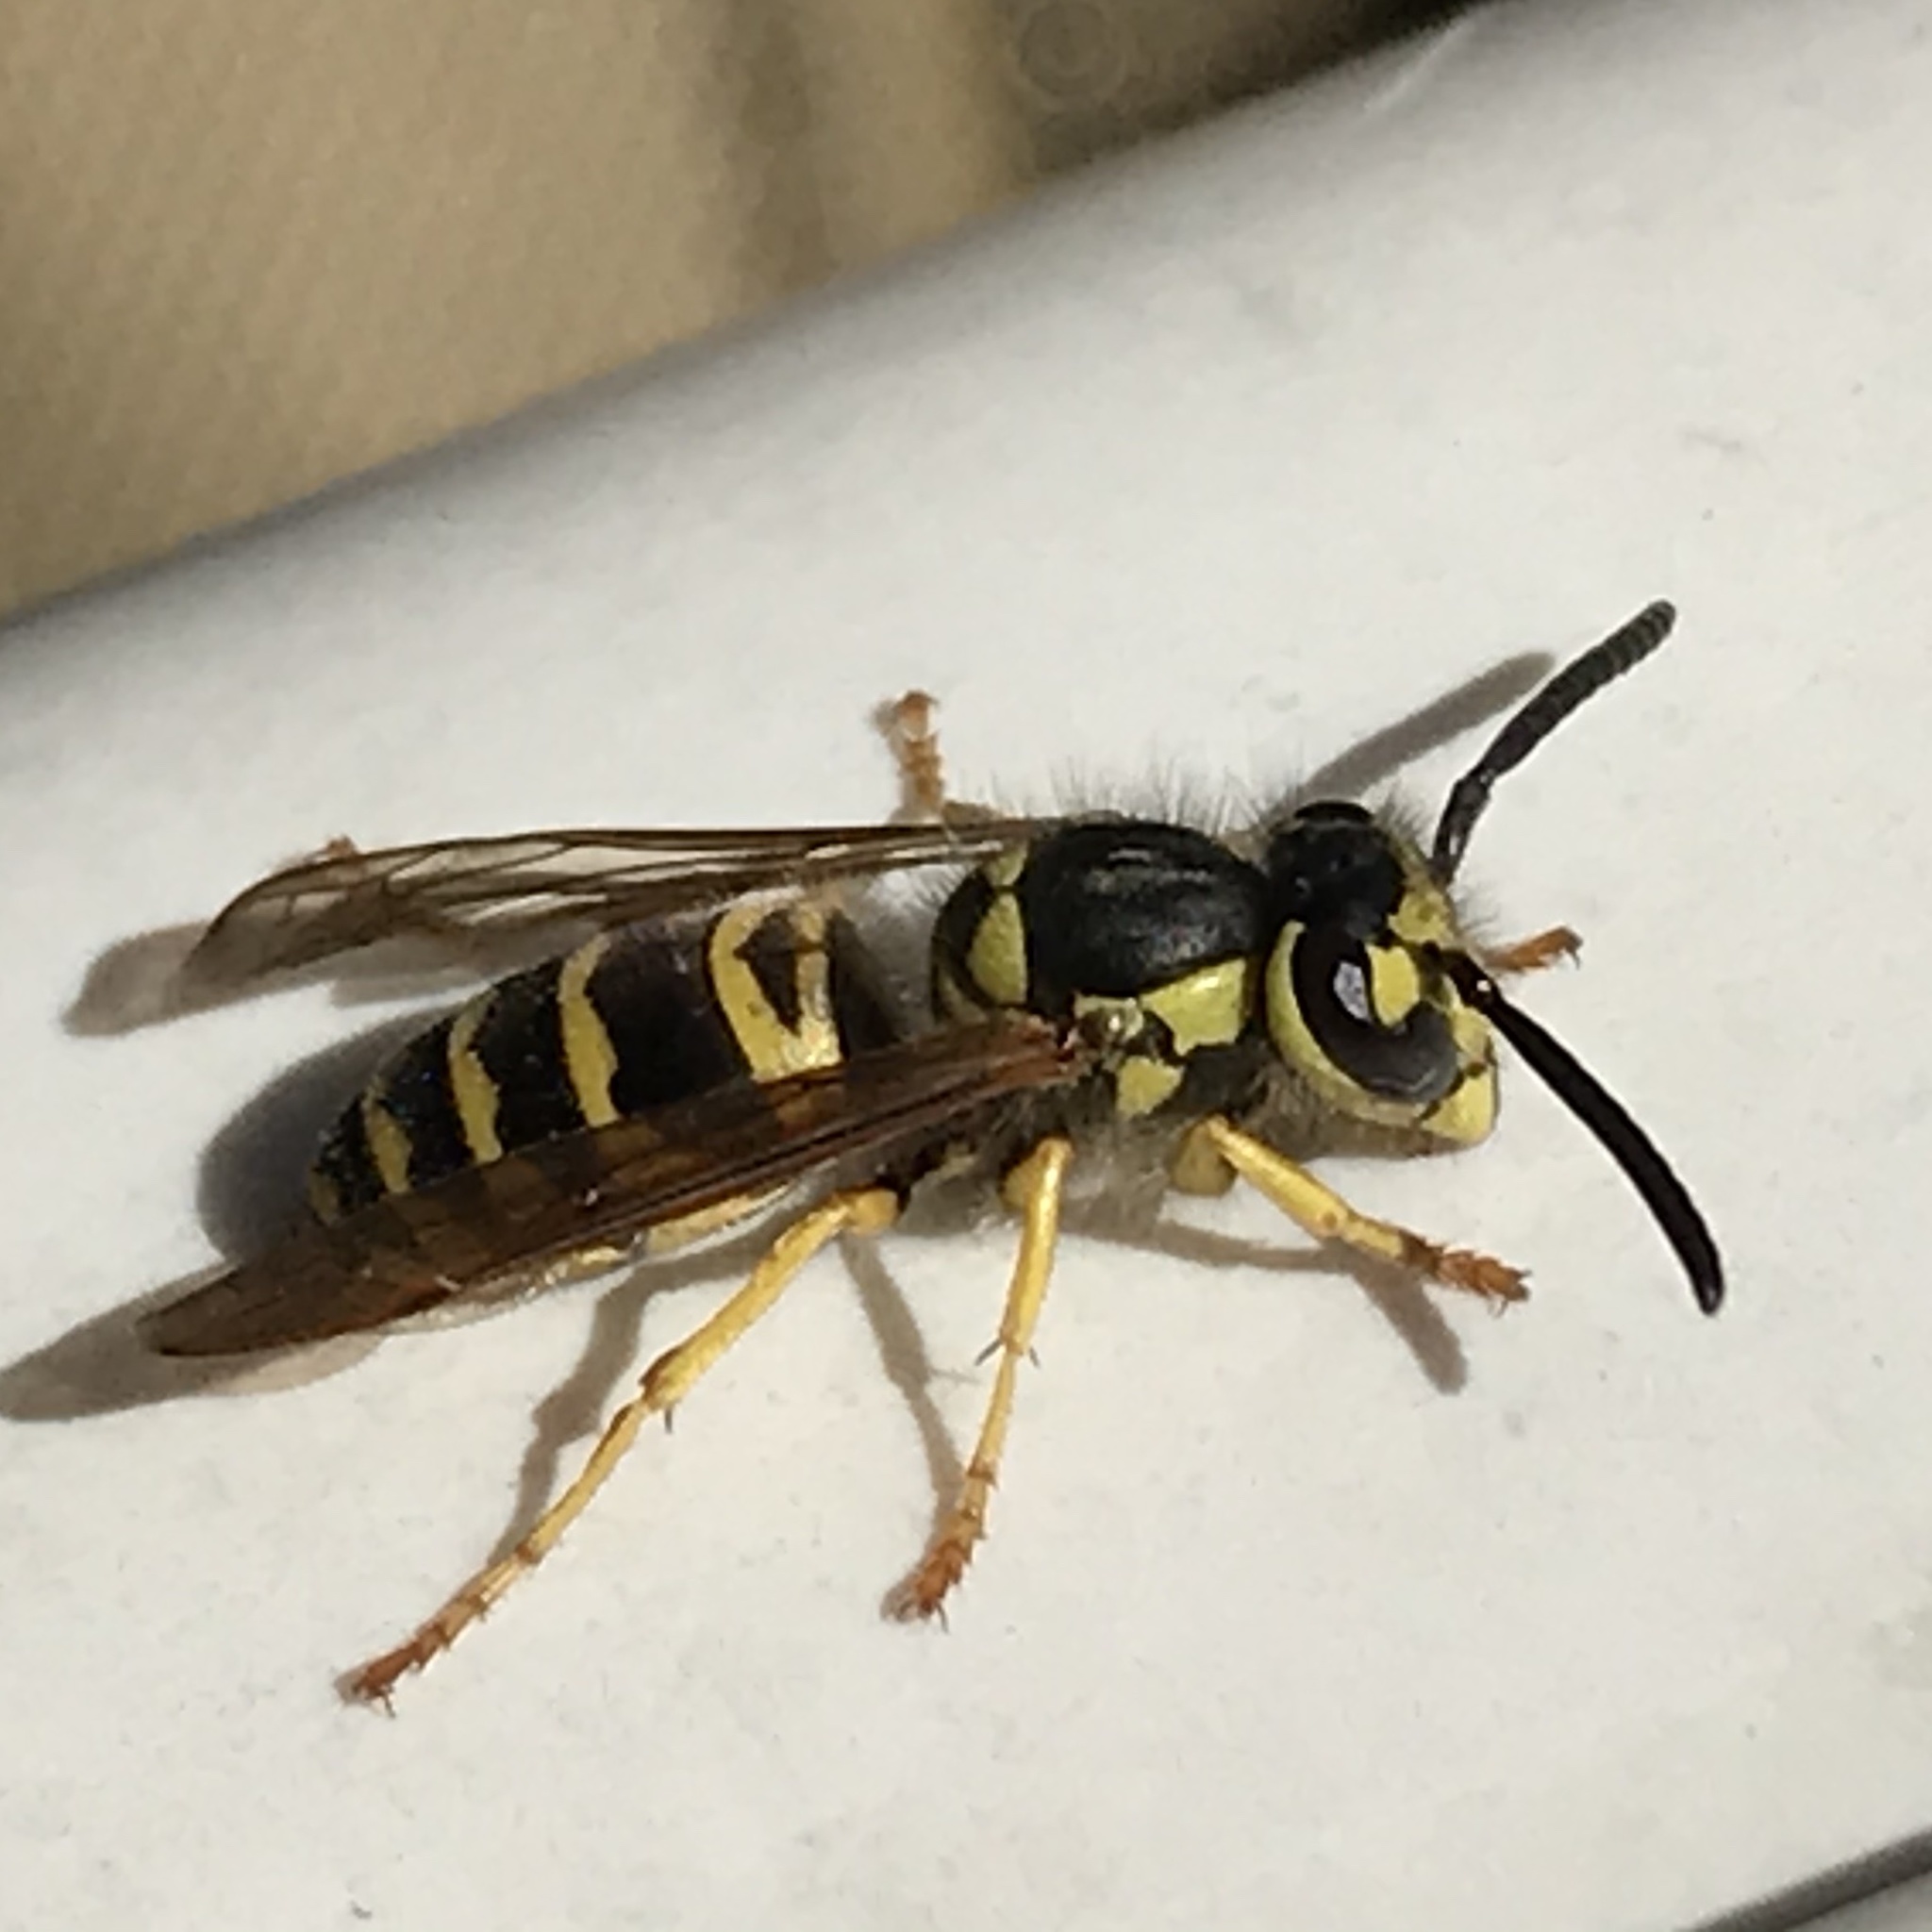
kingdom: Animalia
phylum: Arthropoda
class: Insecta
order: Hymenoptera
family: Vespidae
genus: Vespula
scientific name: Vespula maculifrons
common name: Eastern yellowjacket
